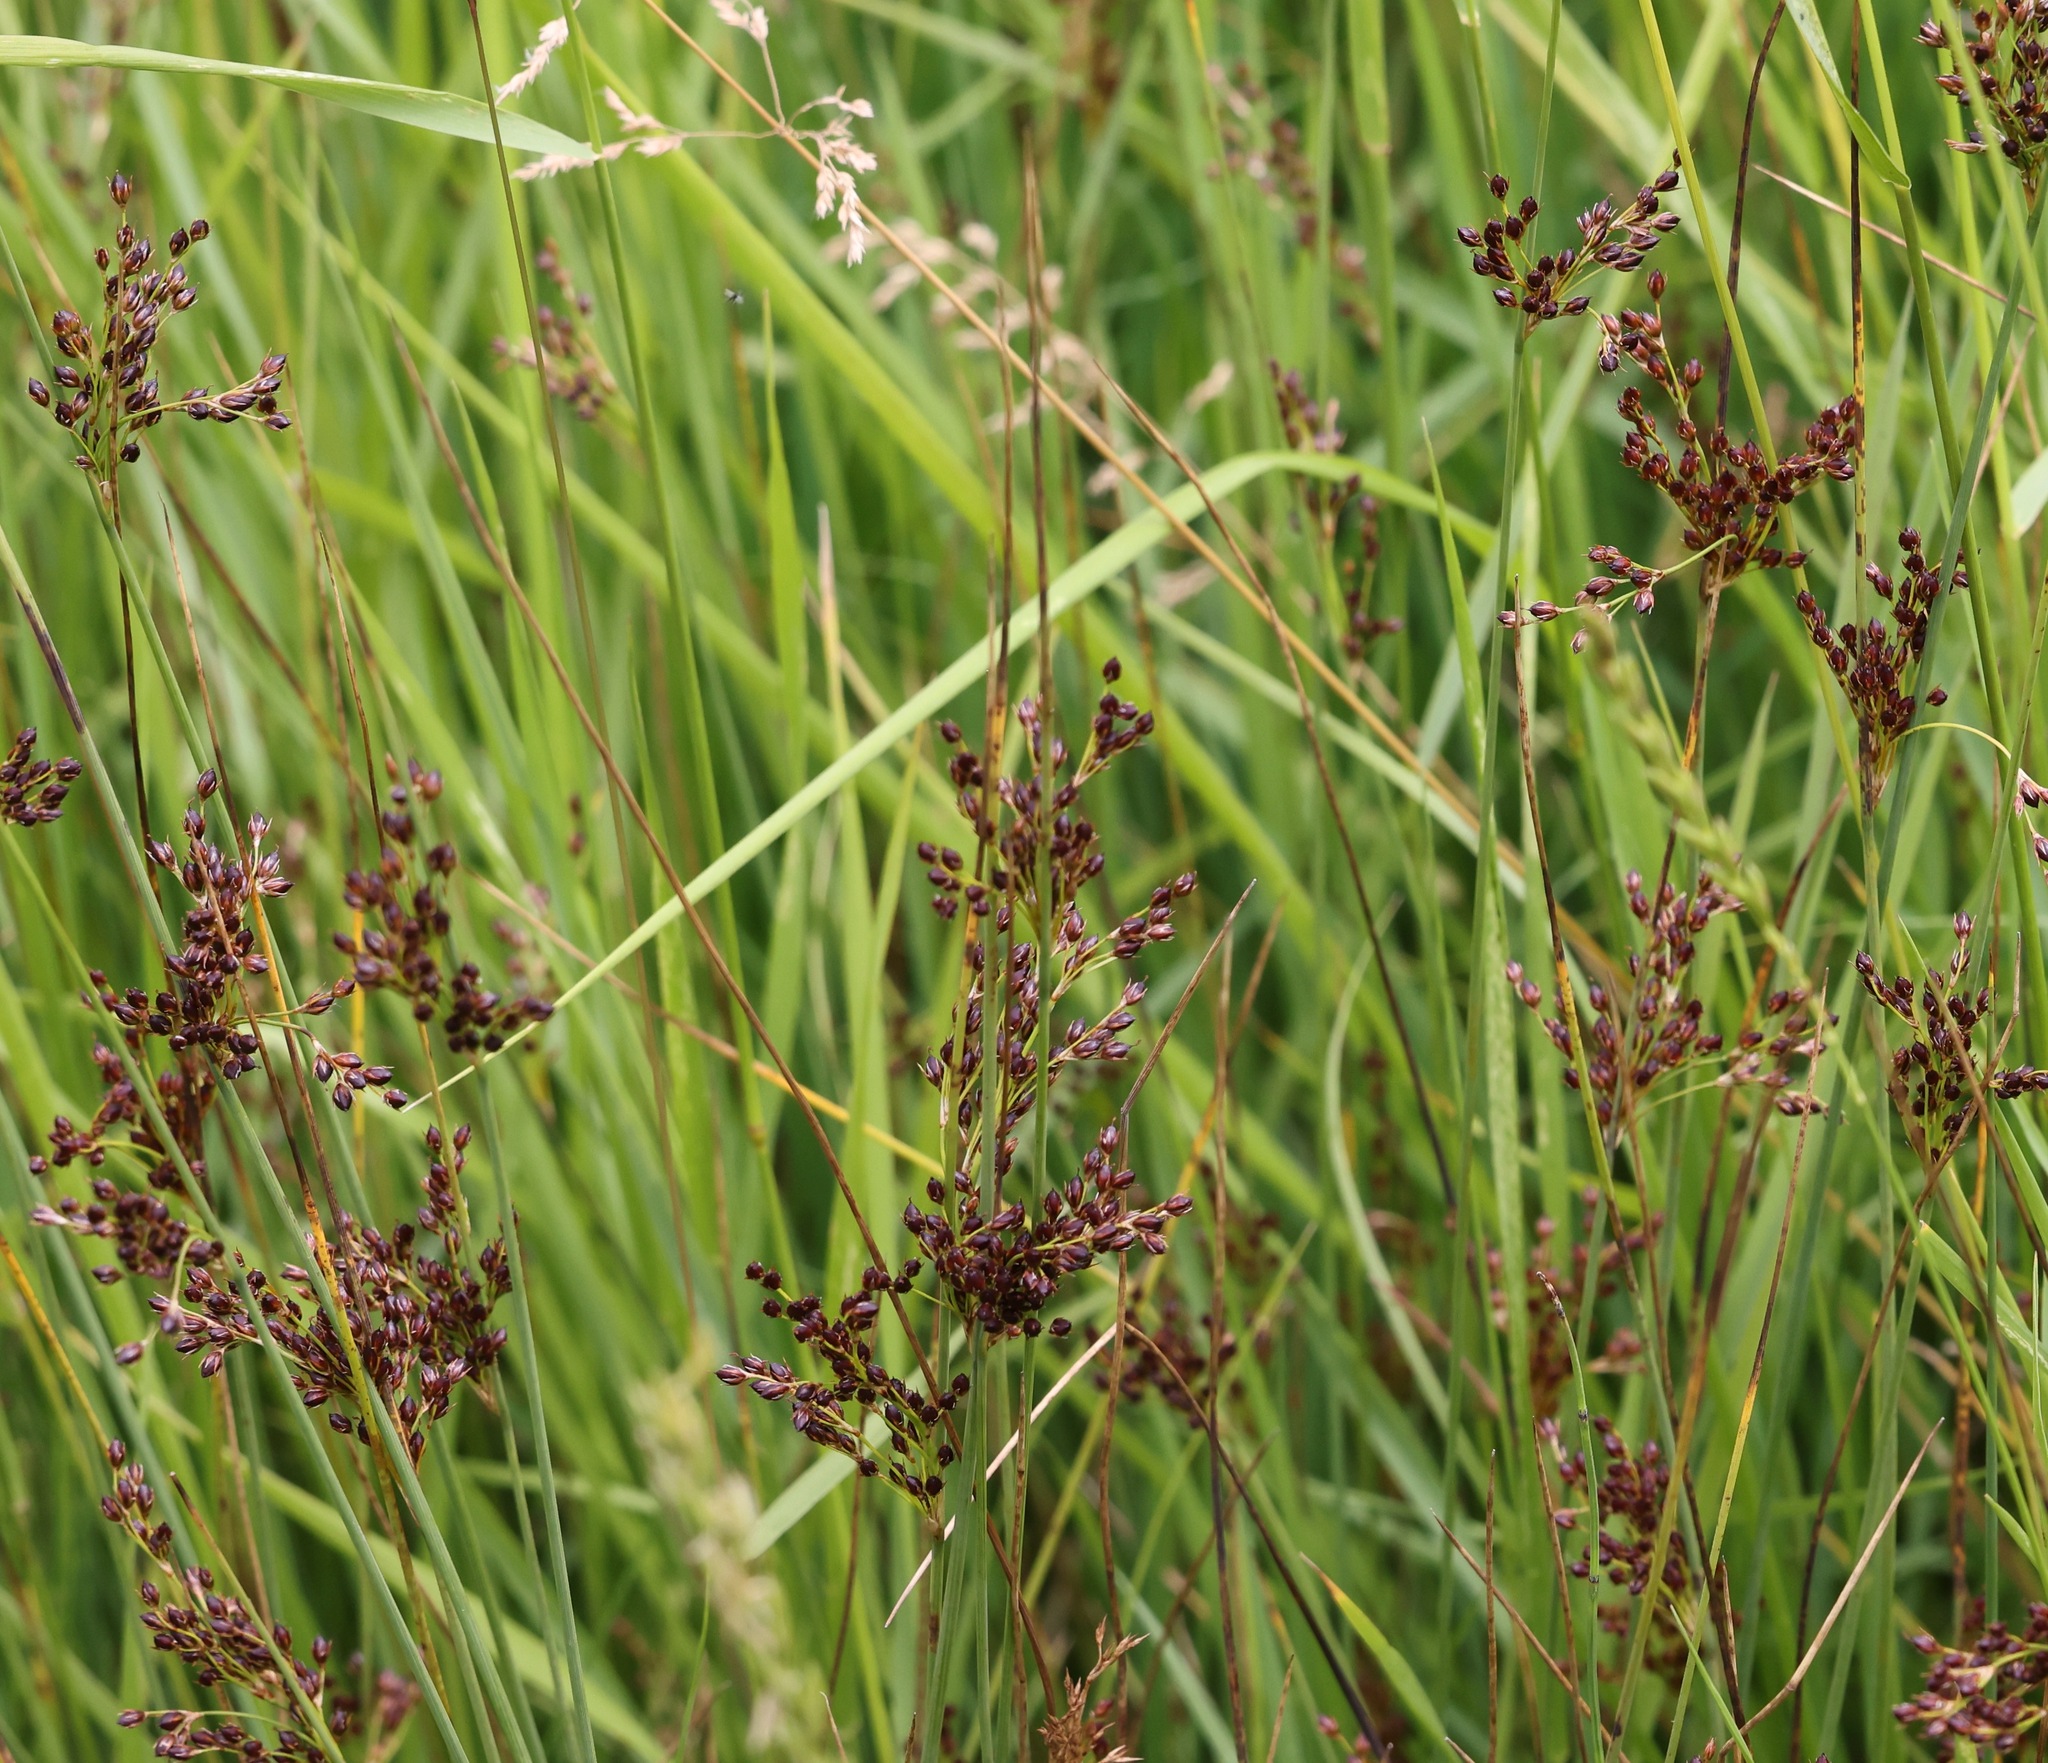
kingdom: Plantae
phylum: Tracheophyta
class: Liliopsida
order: Poales
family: Juncaceae
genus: Juncus
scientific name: Juncus inflexus
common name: Hard rush
